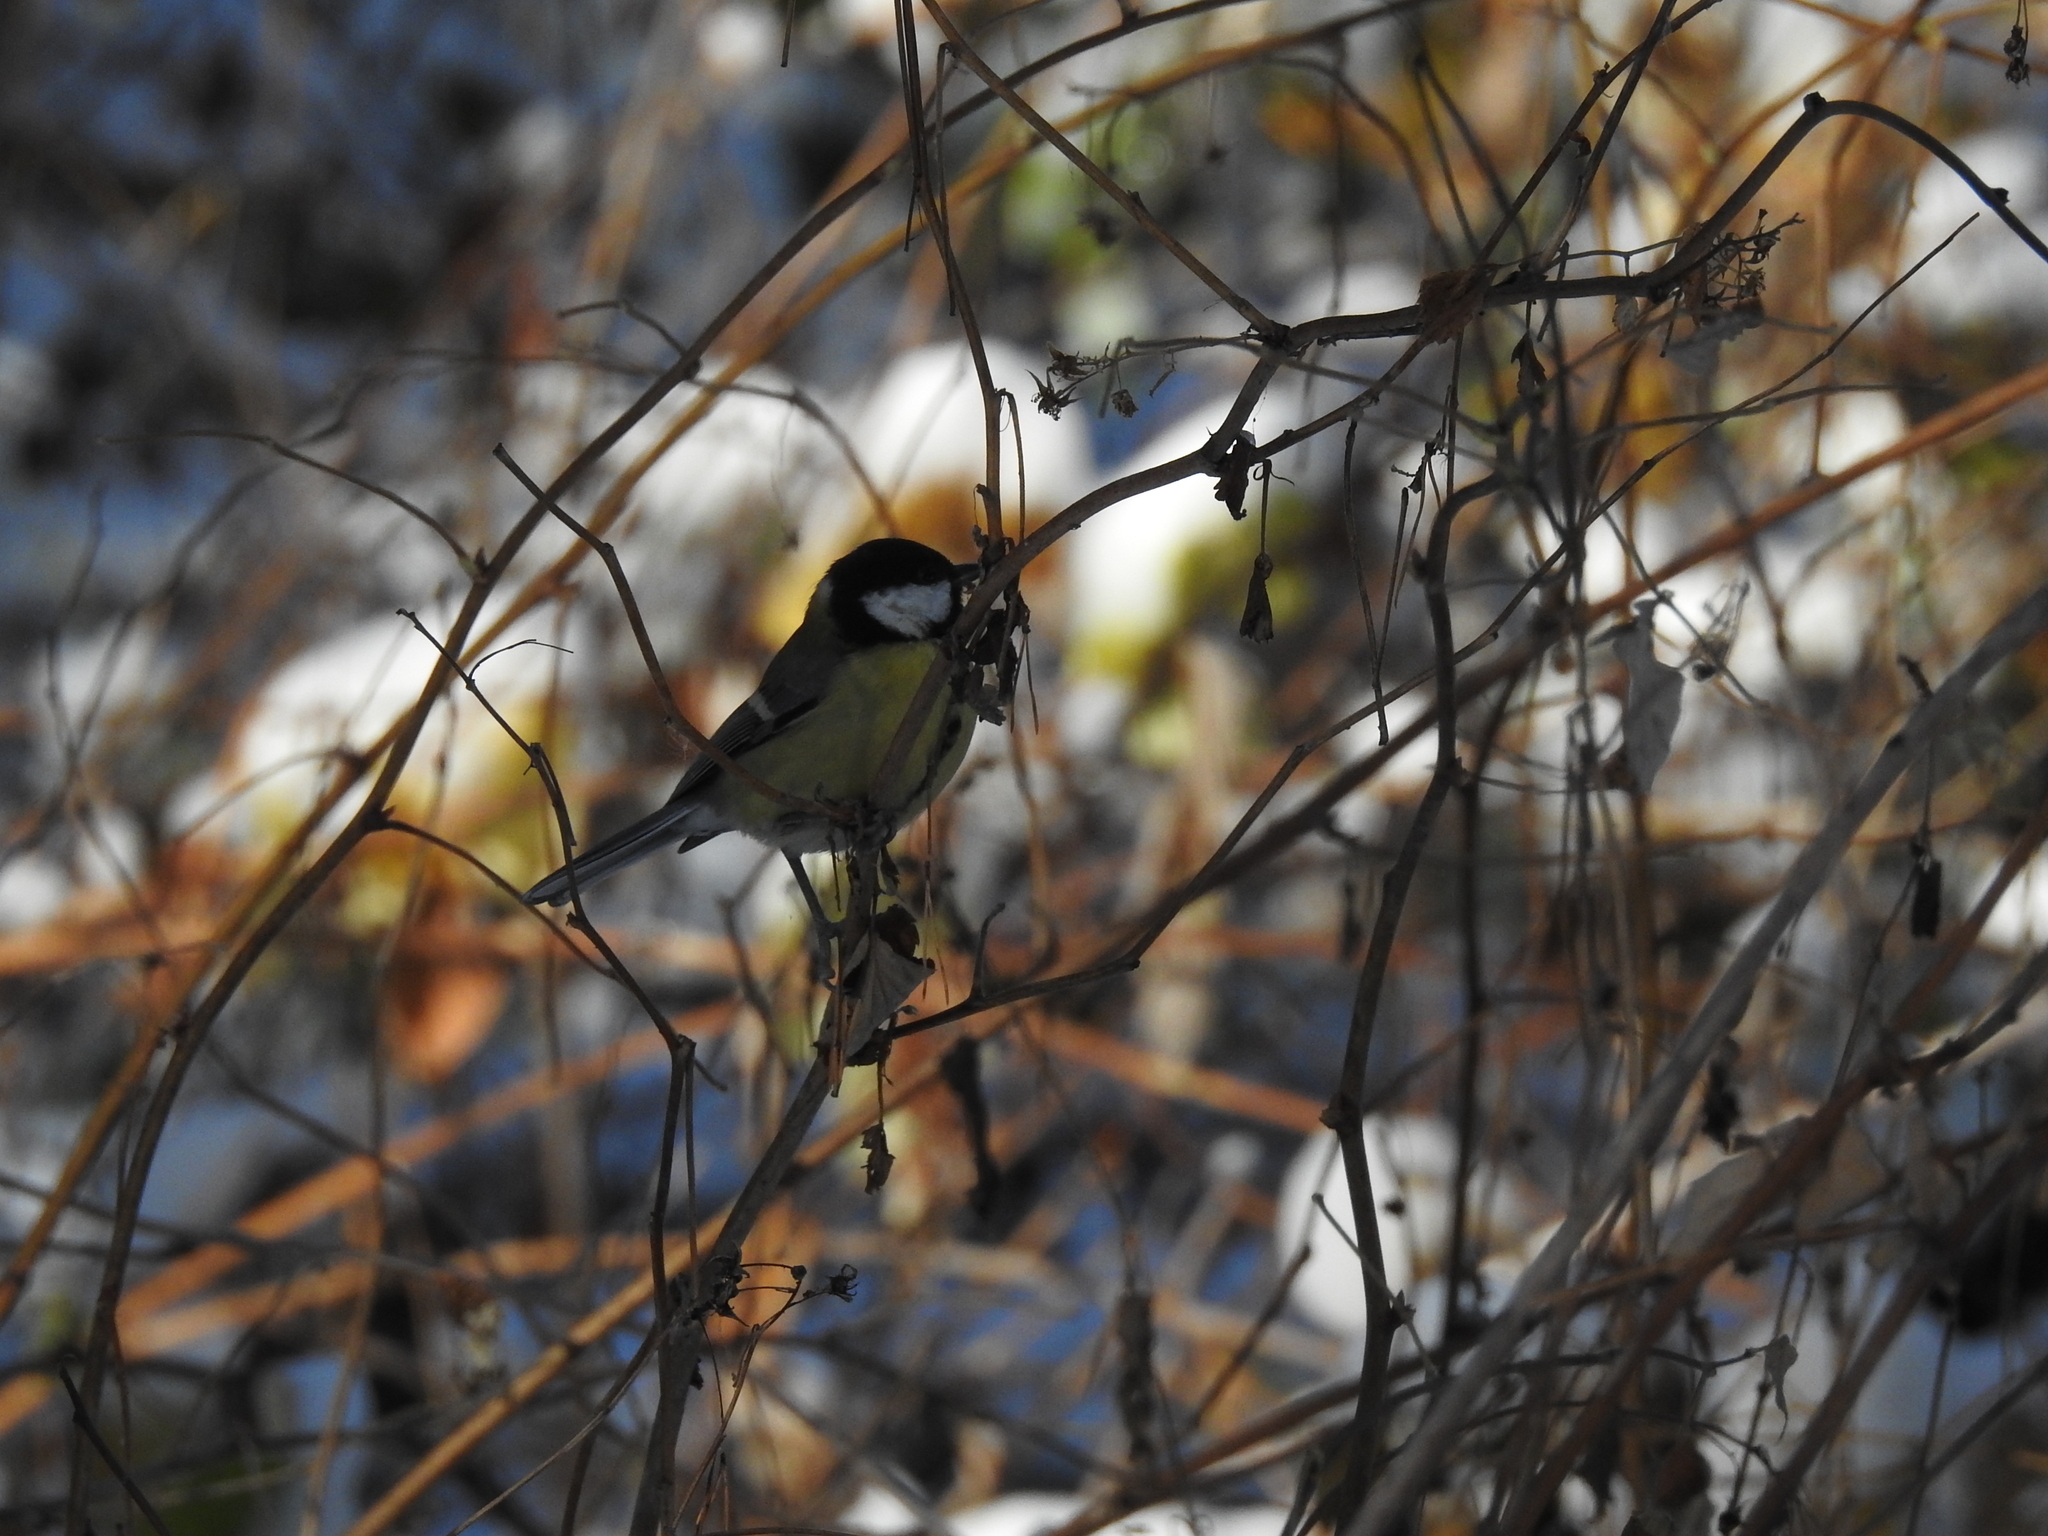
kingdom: Animalia
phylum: Chordata
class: Aves
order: Passeriformes
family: Paridae
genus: Parus
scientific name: Parus major
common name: Great tit
